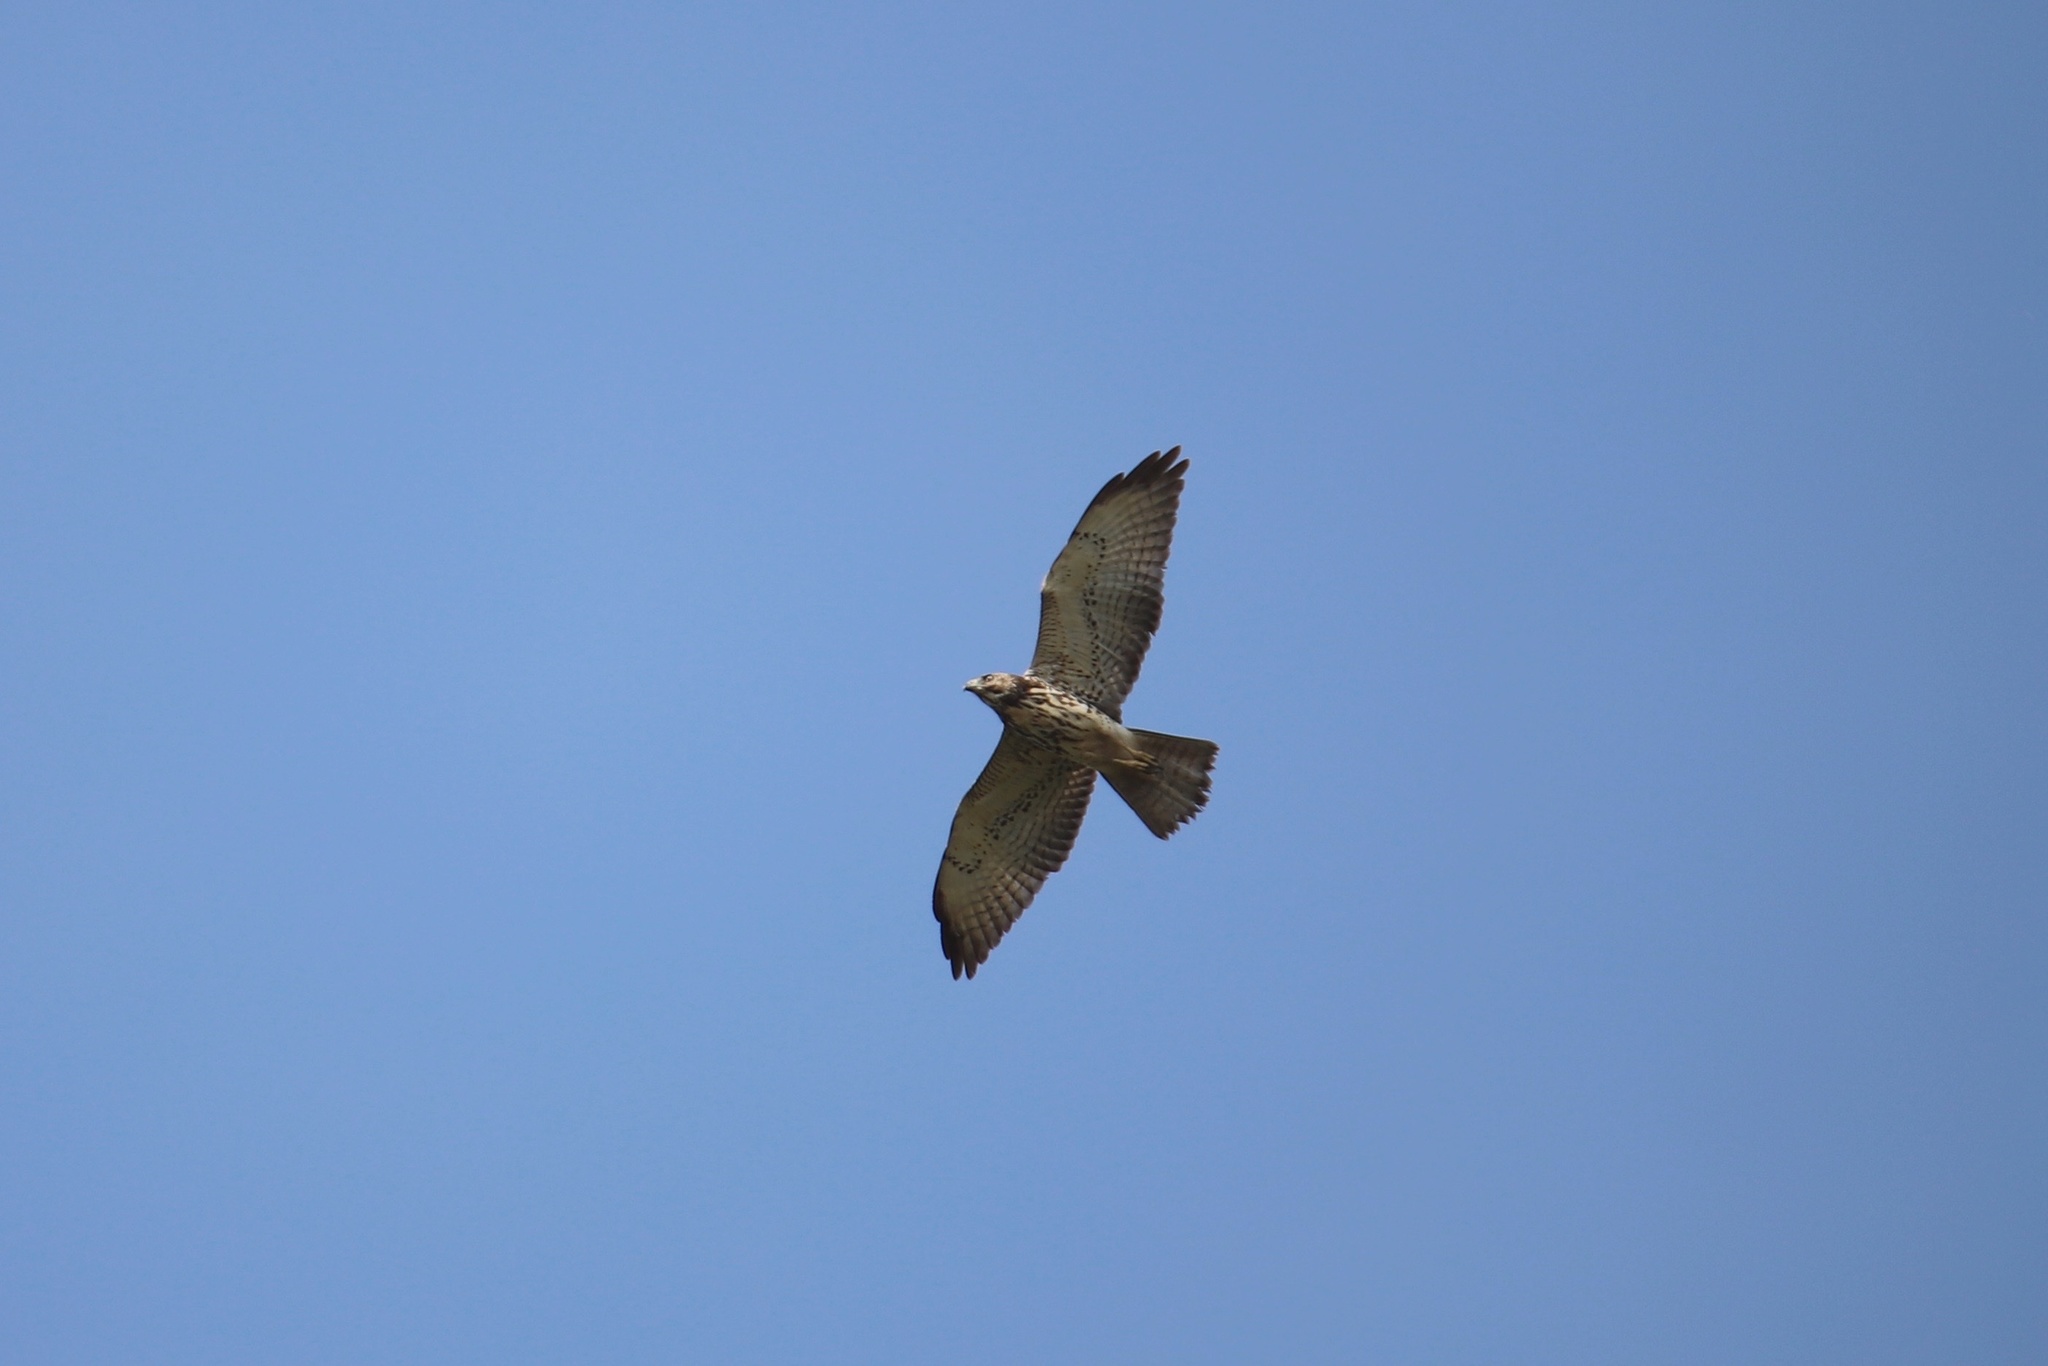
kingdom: Animalia
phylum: Chordata
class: Aves
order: Accipitriformes
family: Accipitridae
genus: Buteo
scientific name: Buteo platypterus
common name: Broad-winged hawk
